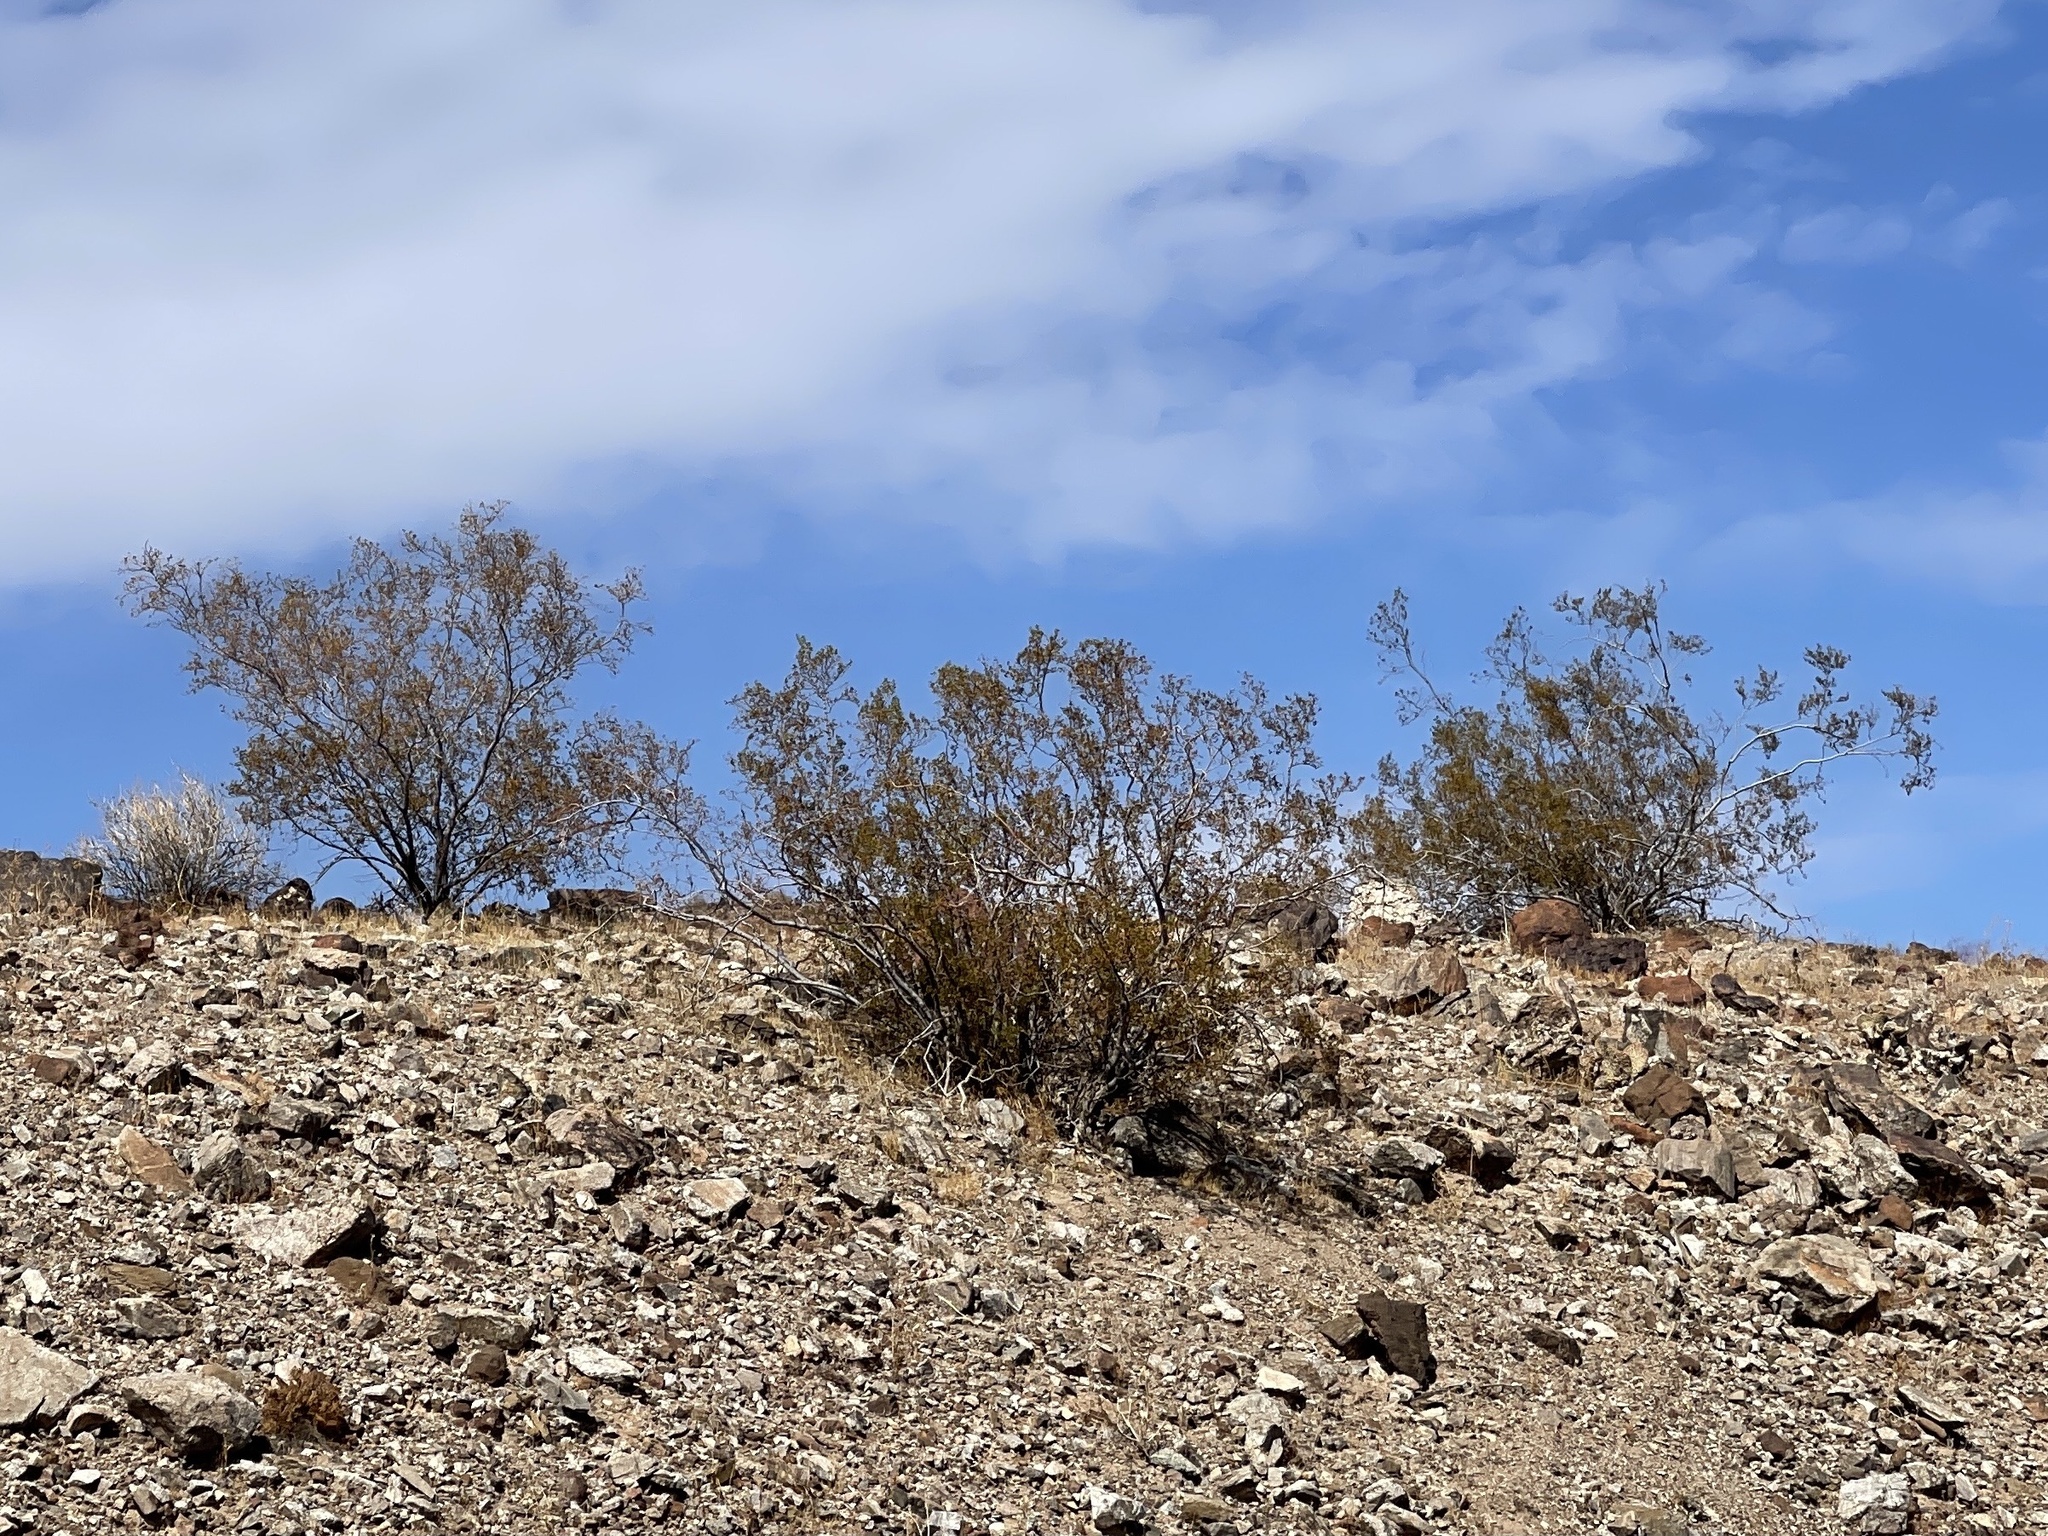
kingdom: Plantae
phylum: Tracheophyta
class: Magnoliopsida
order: Zygophyllales
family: Zygophyllaceae
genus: Larrea
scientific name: Larrea tridentata
